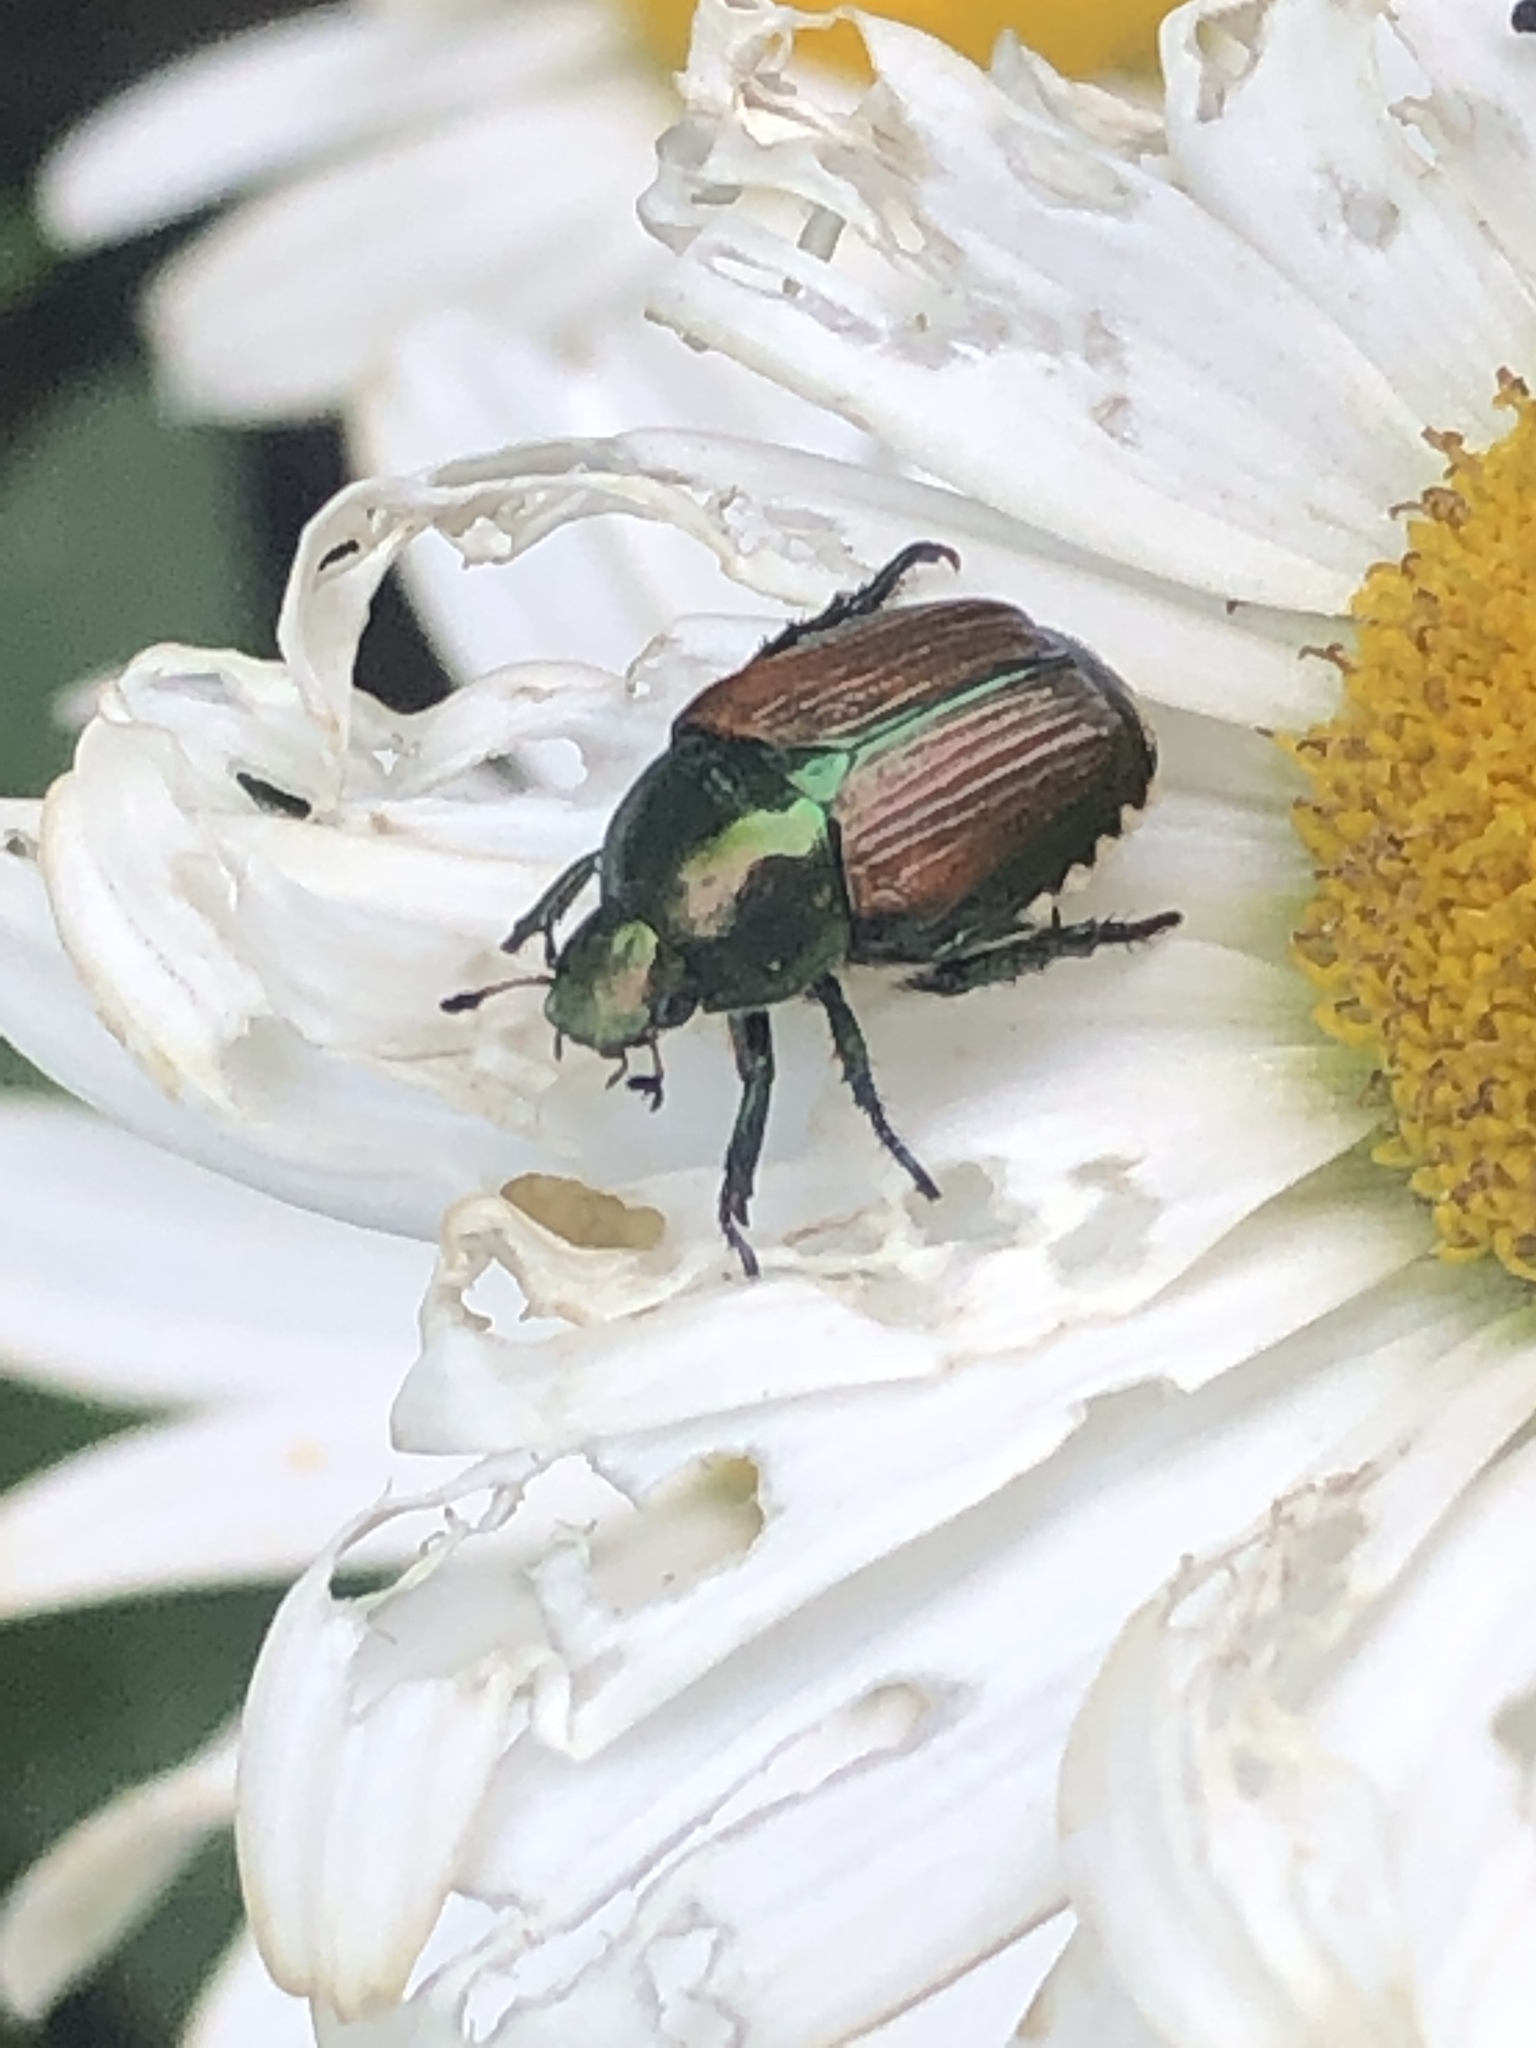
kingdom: Animalia
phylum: Arthropoda
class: Insecta
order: Coleoptera
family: Scarabaeidae
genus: Popillia
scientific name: Popillia japonica
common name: Japanese beetle
